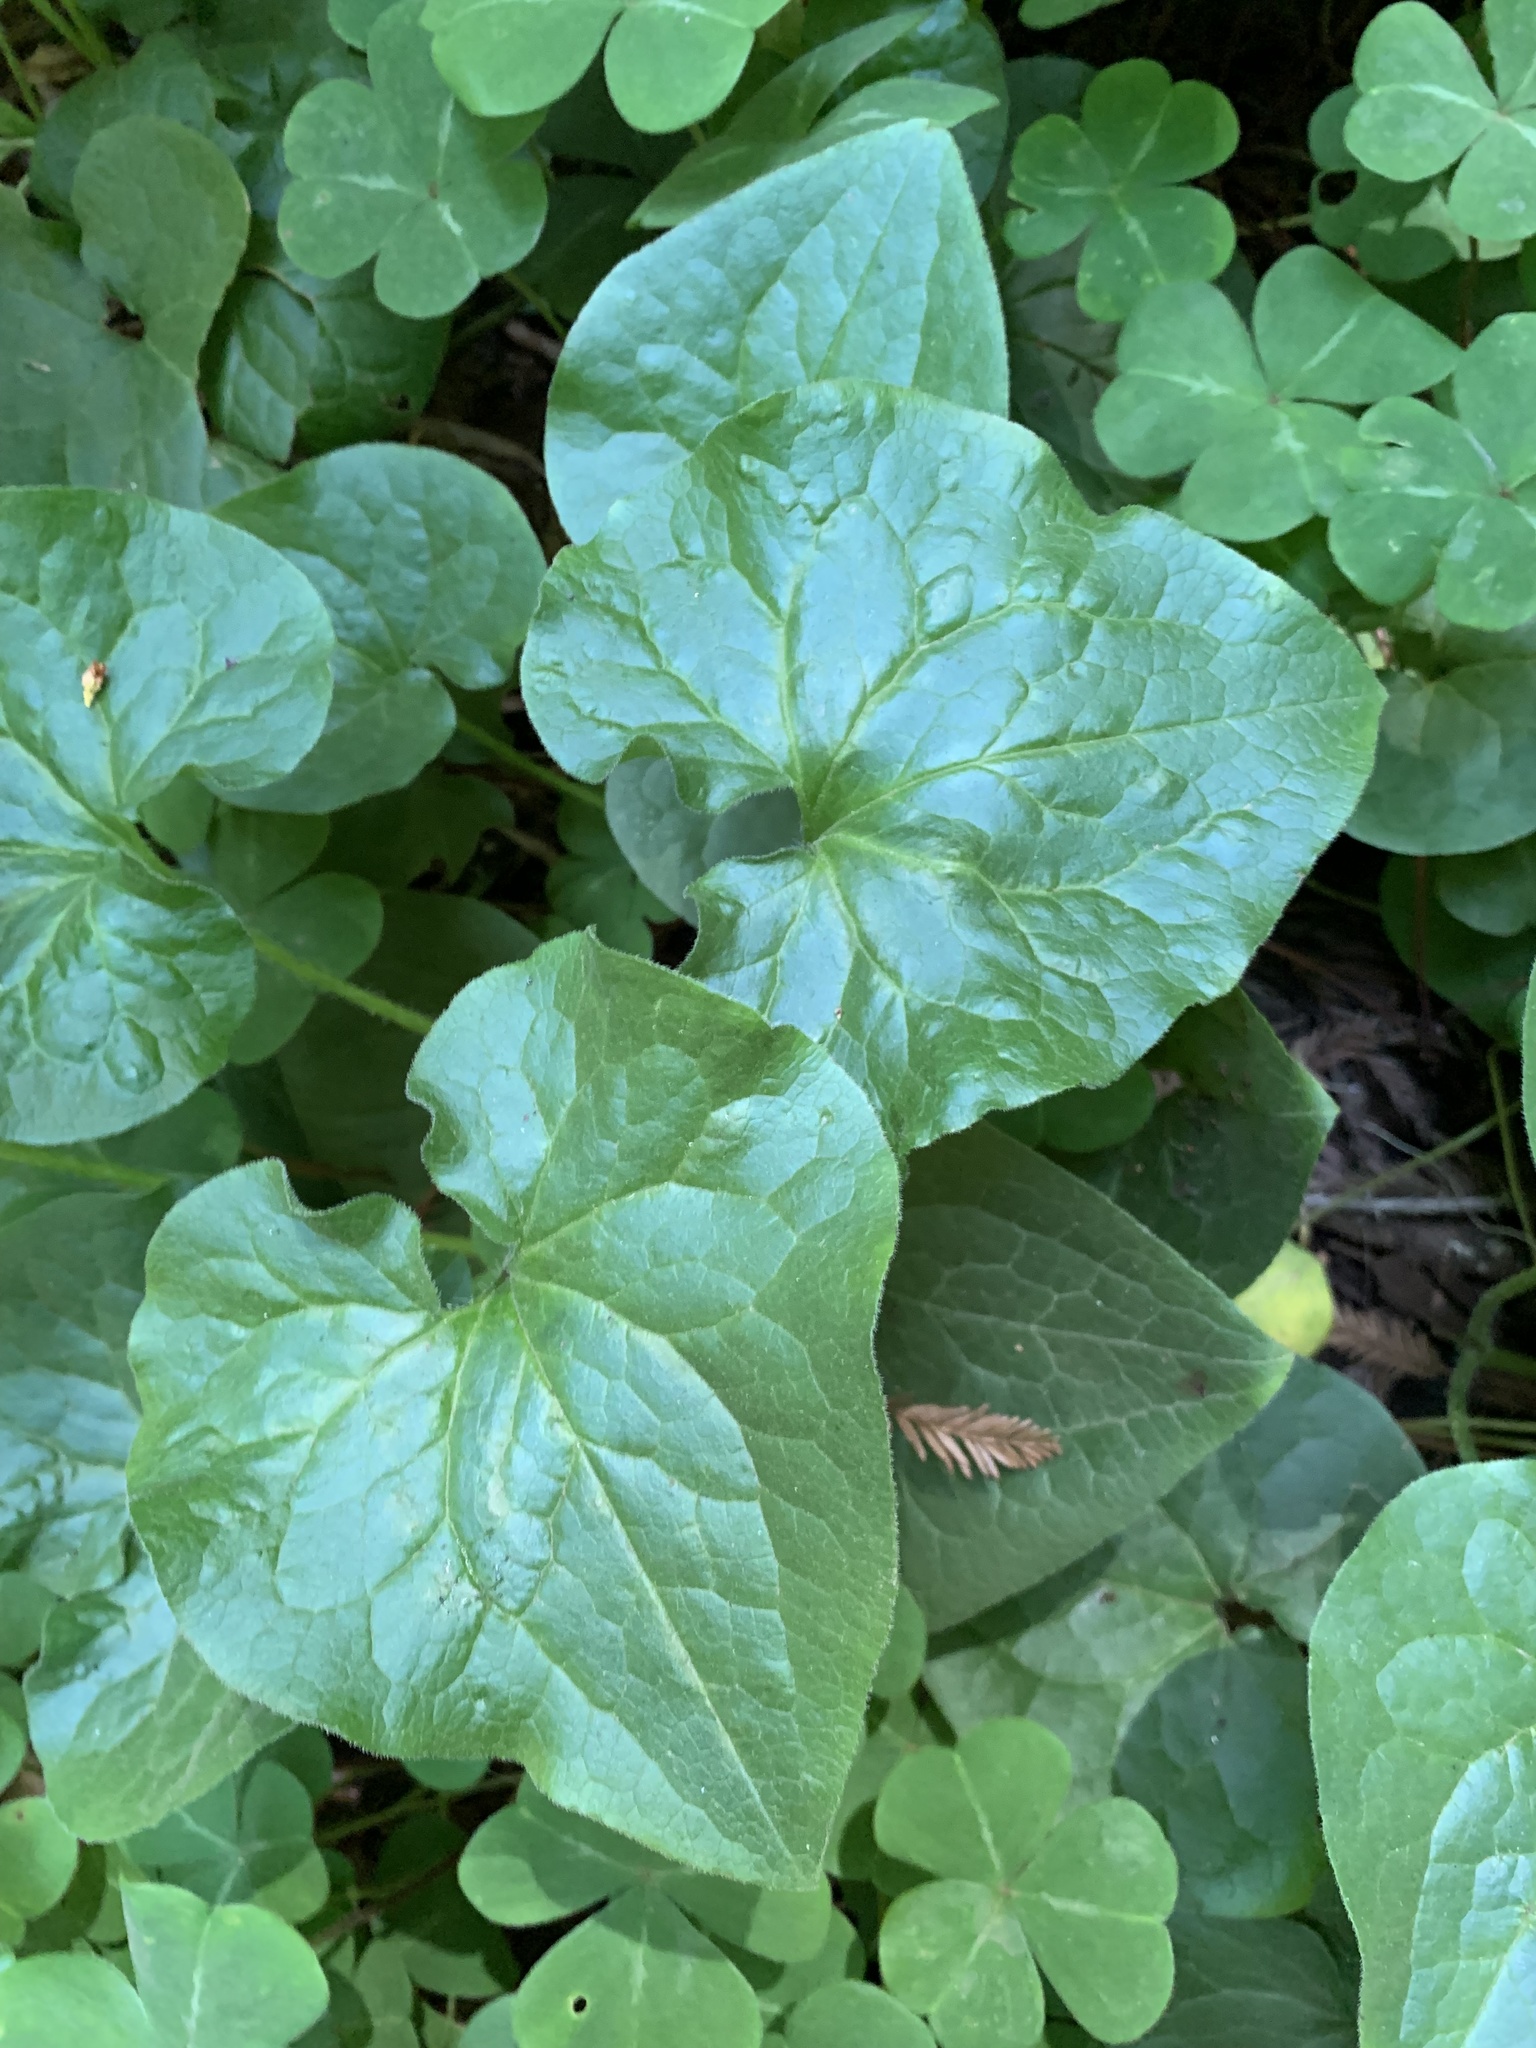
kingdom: Plantae
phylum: Tracheophyta
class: Magnoliopsida
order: Piperales
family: Aristolochiaceae
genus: Asarum
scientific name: Asarum caudatum
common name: Wild ginger
